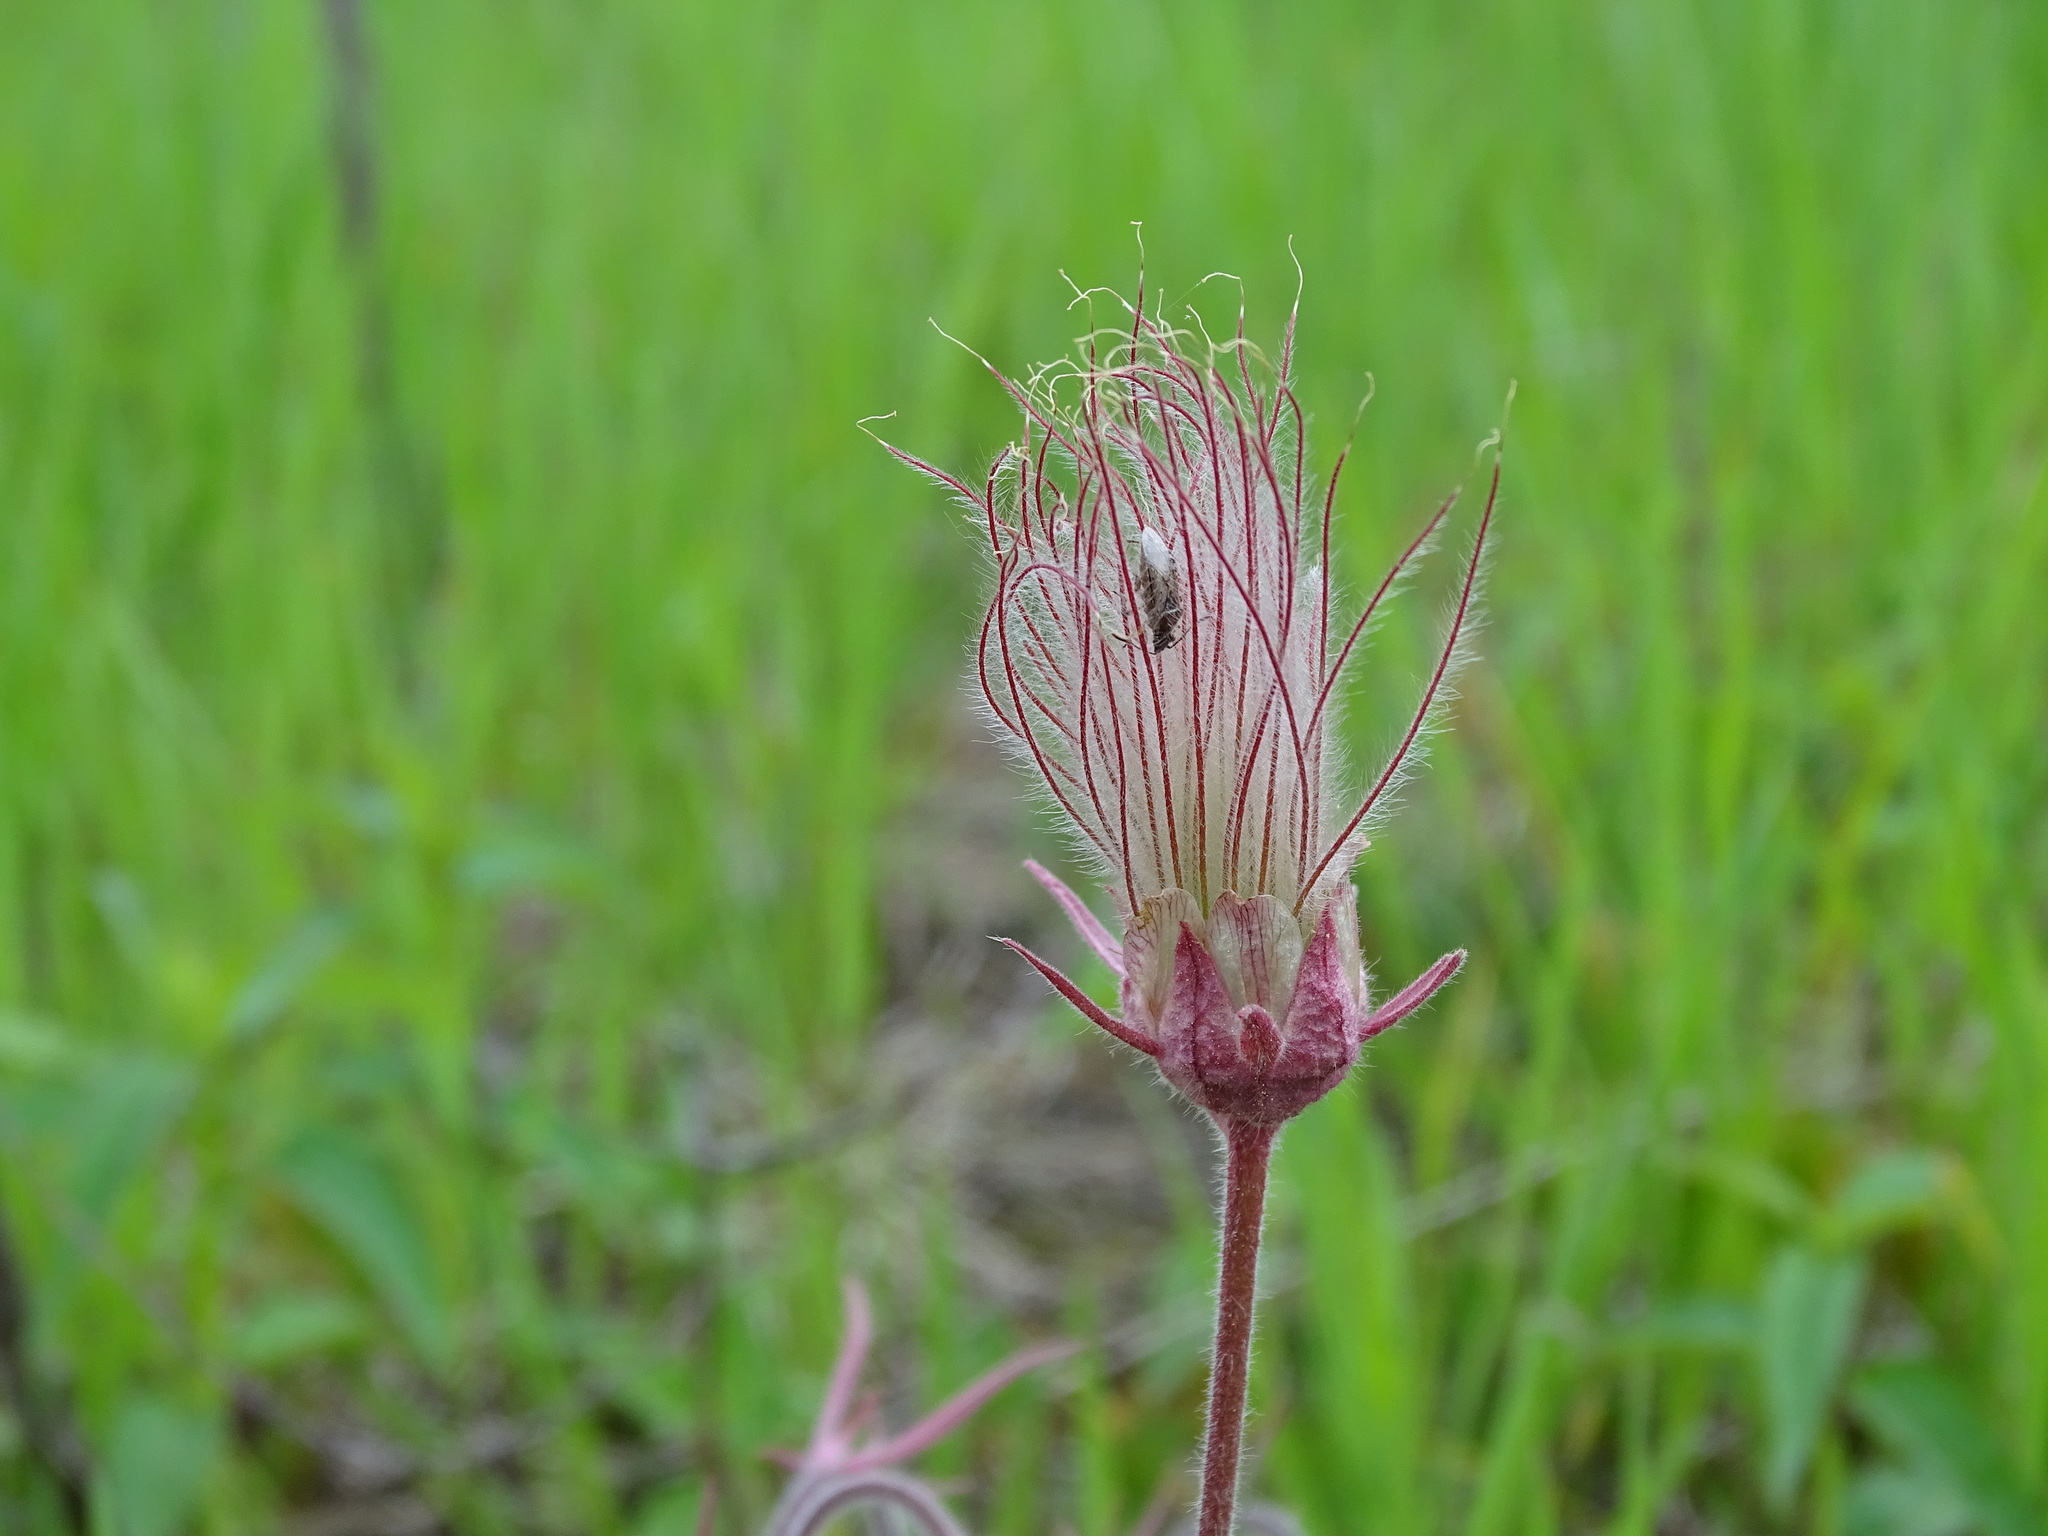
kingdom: Plantae
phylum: Tracheophyta
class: Magnoliopsida
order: Rosales
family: Rosaceae
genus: Geum
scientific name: Geum triflorum
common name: Old man's whiskers
